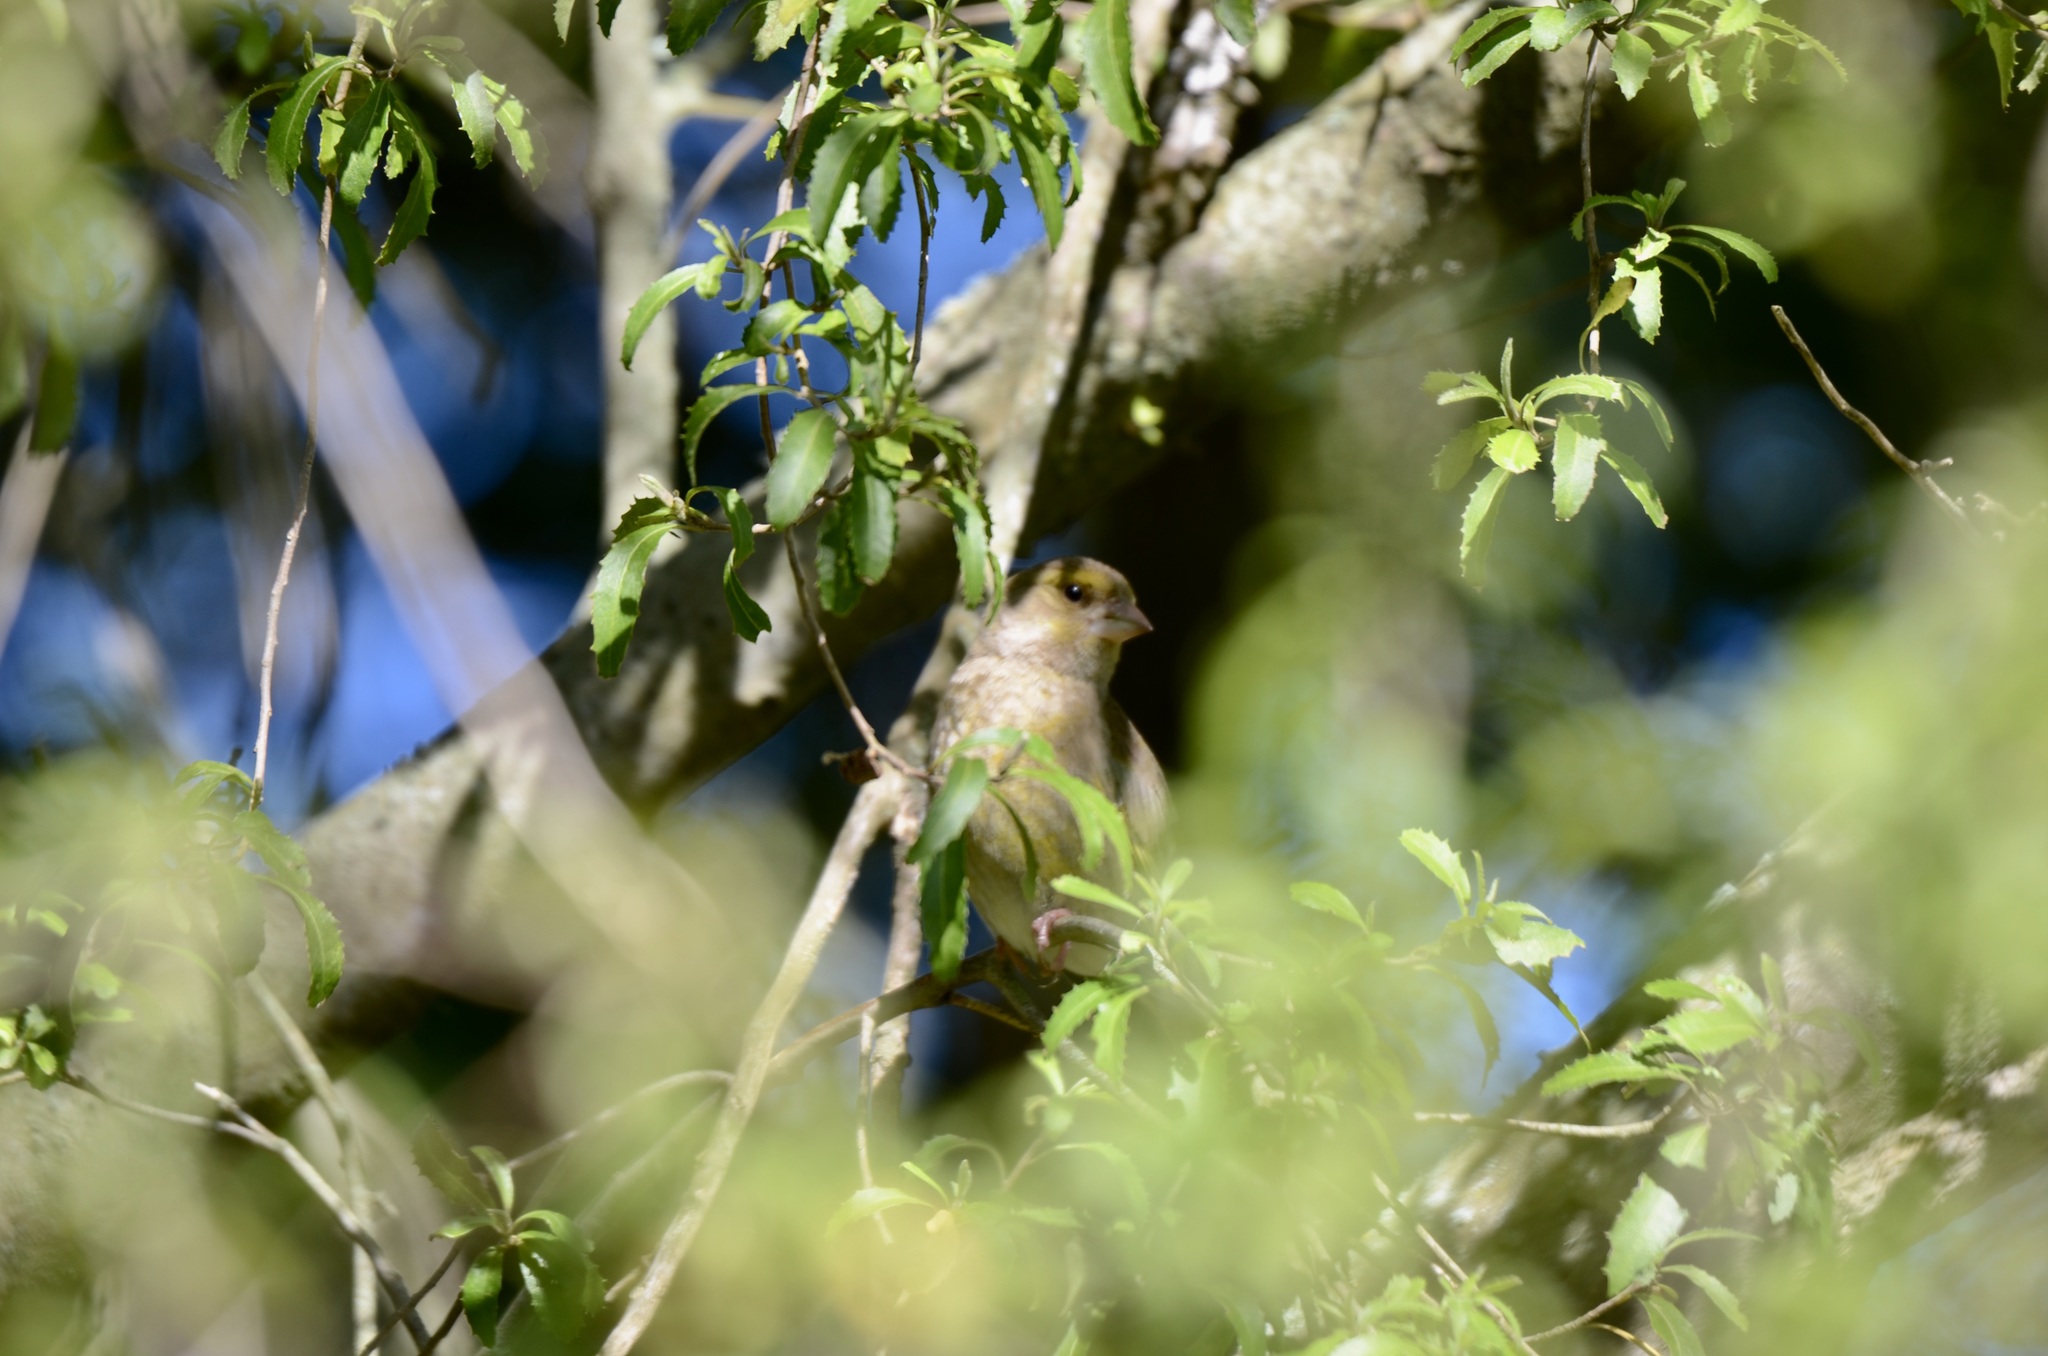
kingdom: Plantae
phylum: Tracheophyta
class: Liliopsida
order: Poales
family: Poaceae
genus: Chloris
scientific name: Chloris chloris
